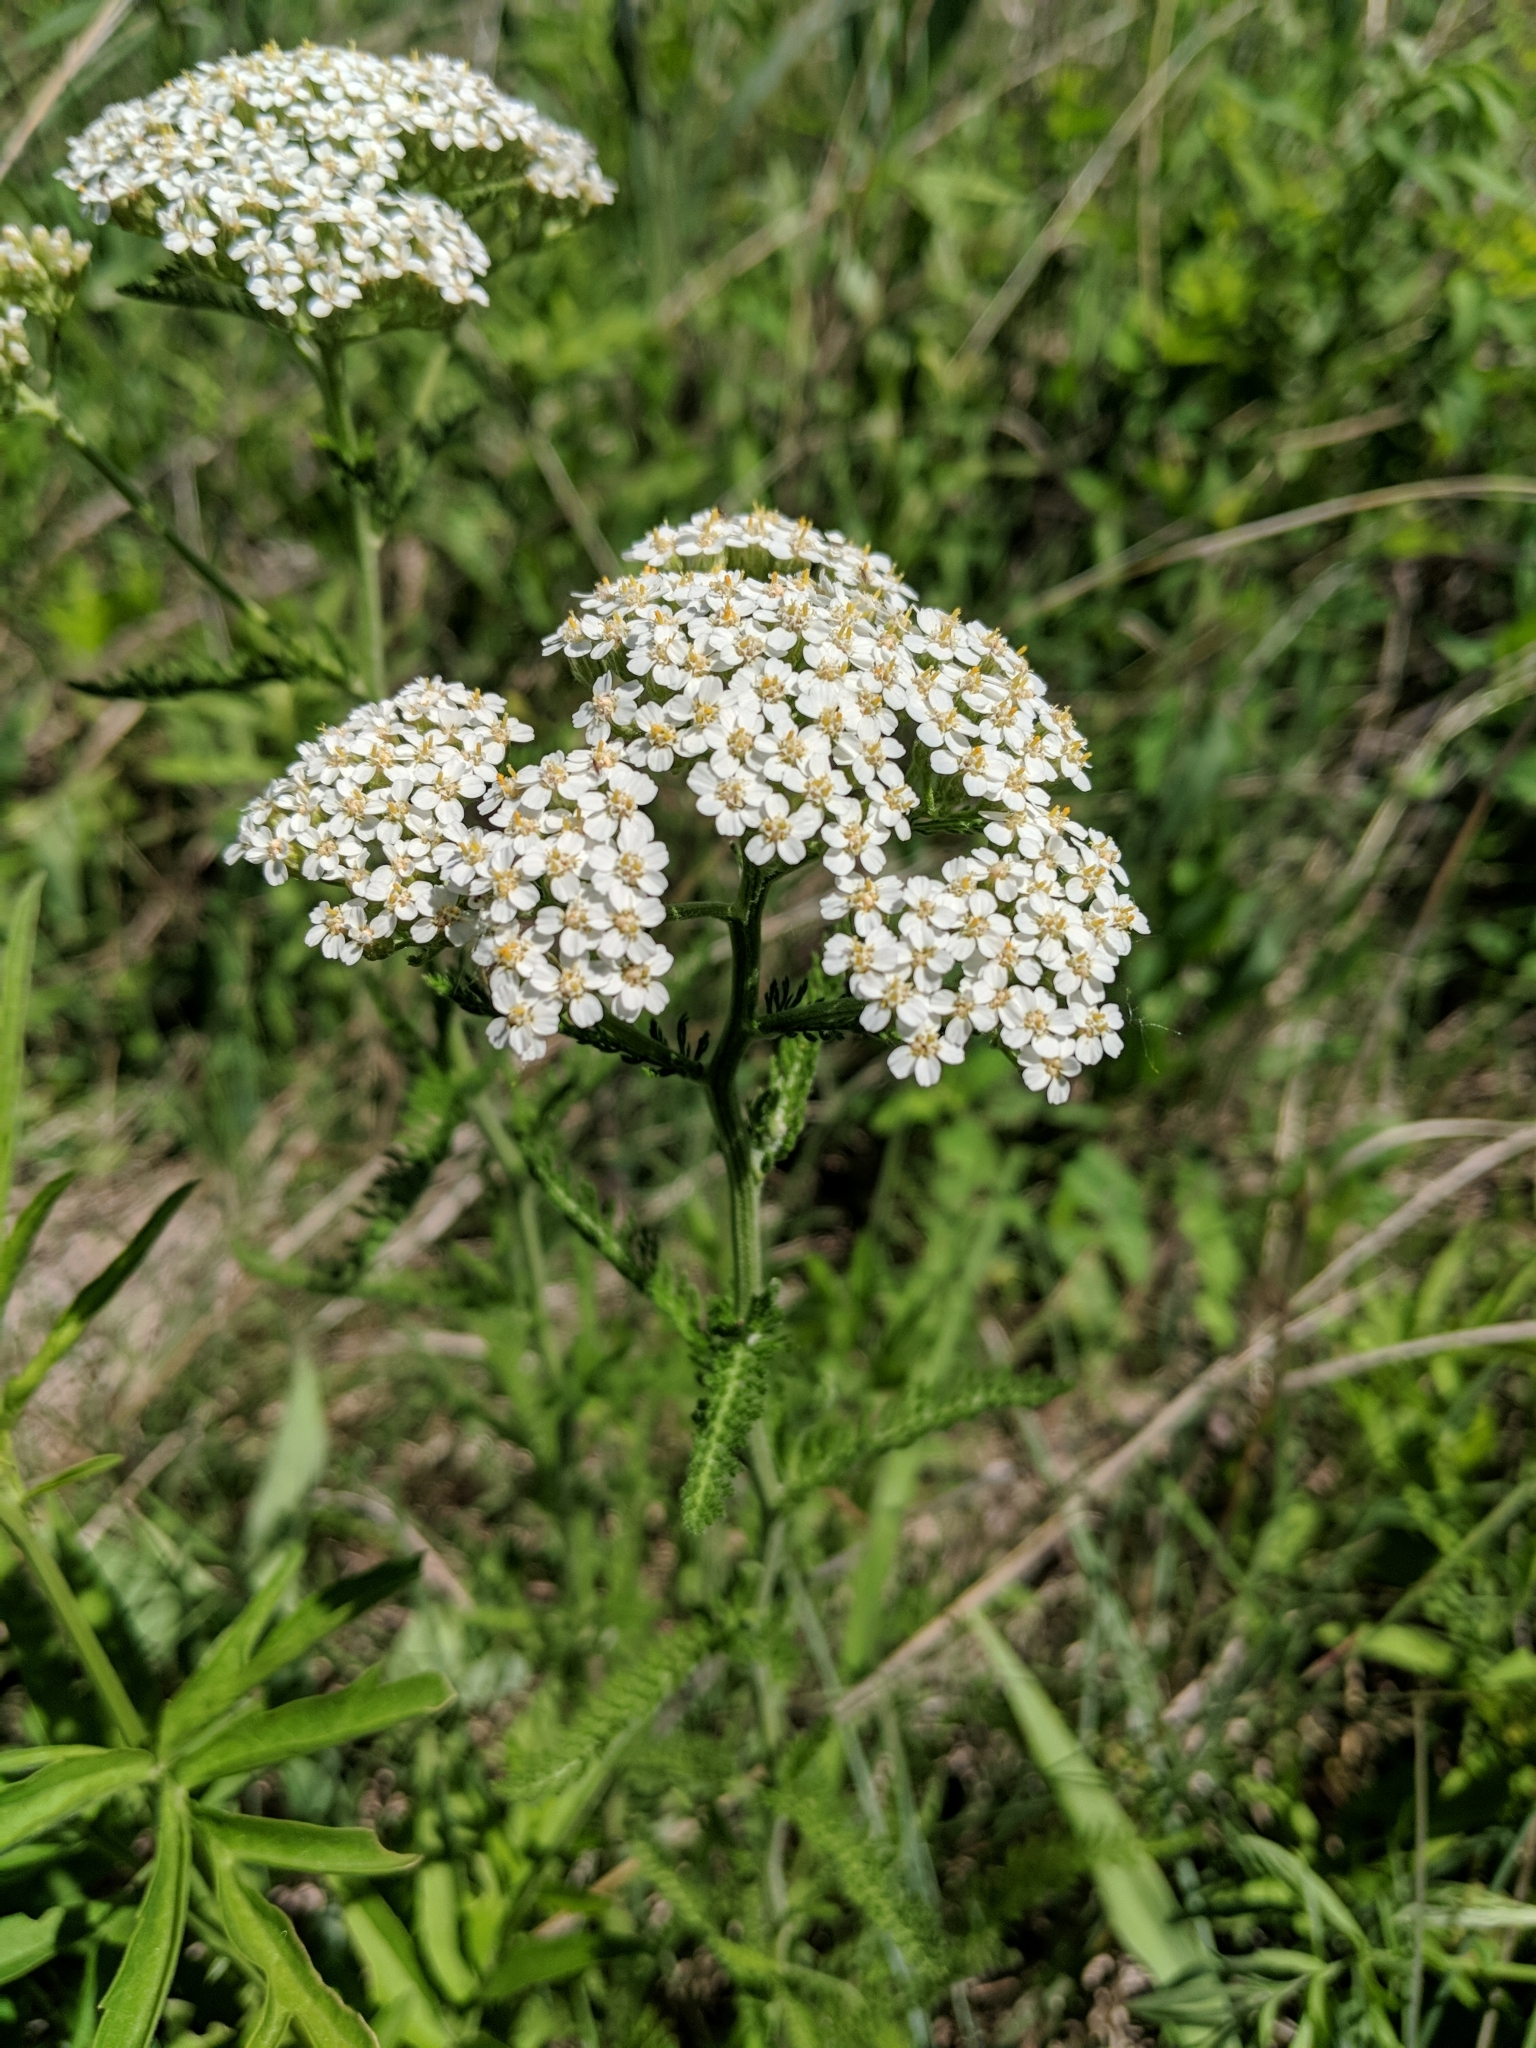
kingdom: Plantae
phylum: Tracheophyta
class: Magnoliopsida
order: Asterales
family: Asteraceae
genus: Achillea
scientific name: Achillea millefolium
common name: Yarrow
